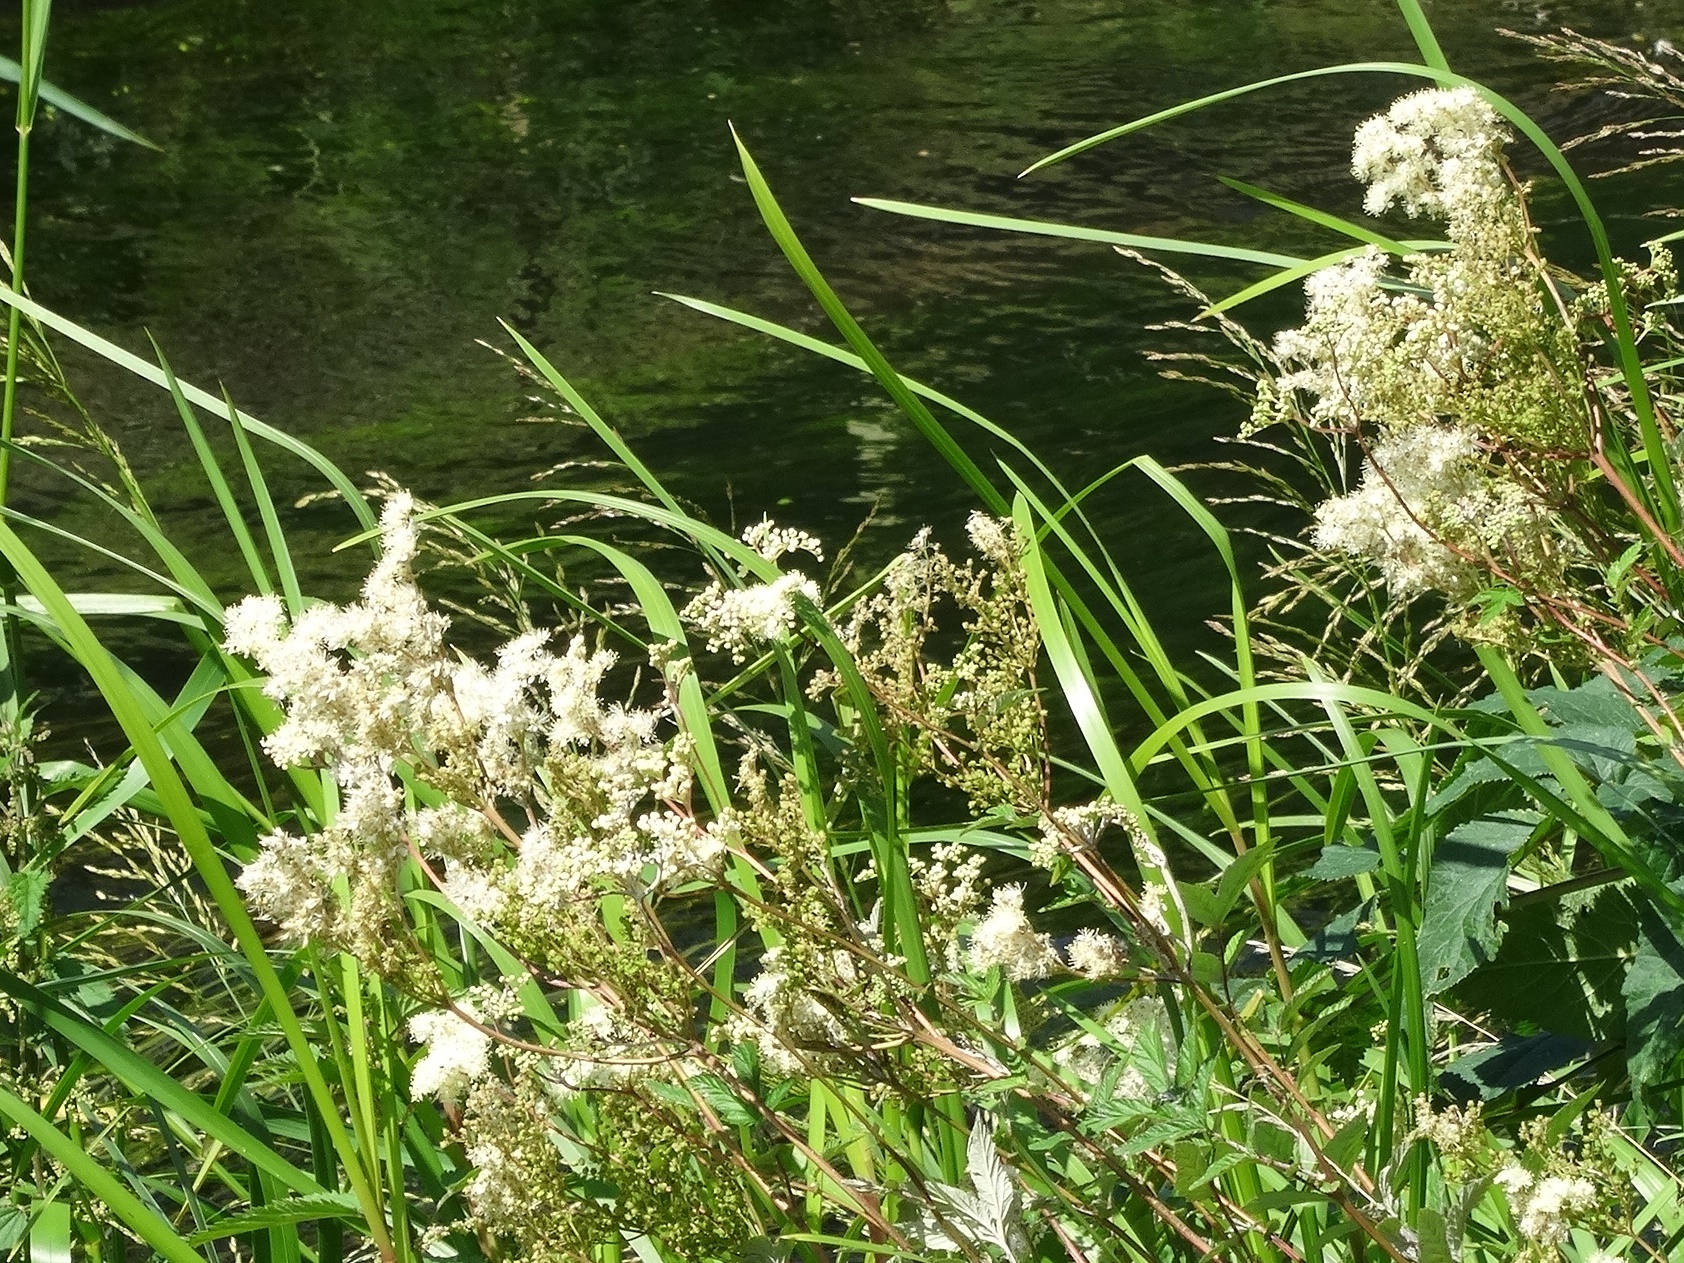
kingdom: Plantae
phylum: Tracheophyta
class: Magnoliopsida
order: Rosales
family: Rosaceae
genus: Filipendula
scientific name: Filipendula ulmaria
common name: Meadowsweet
